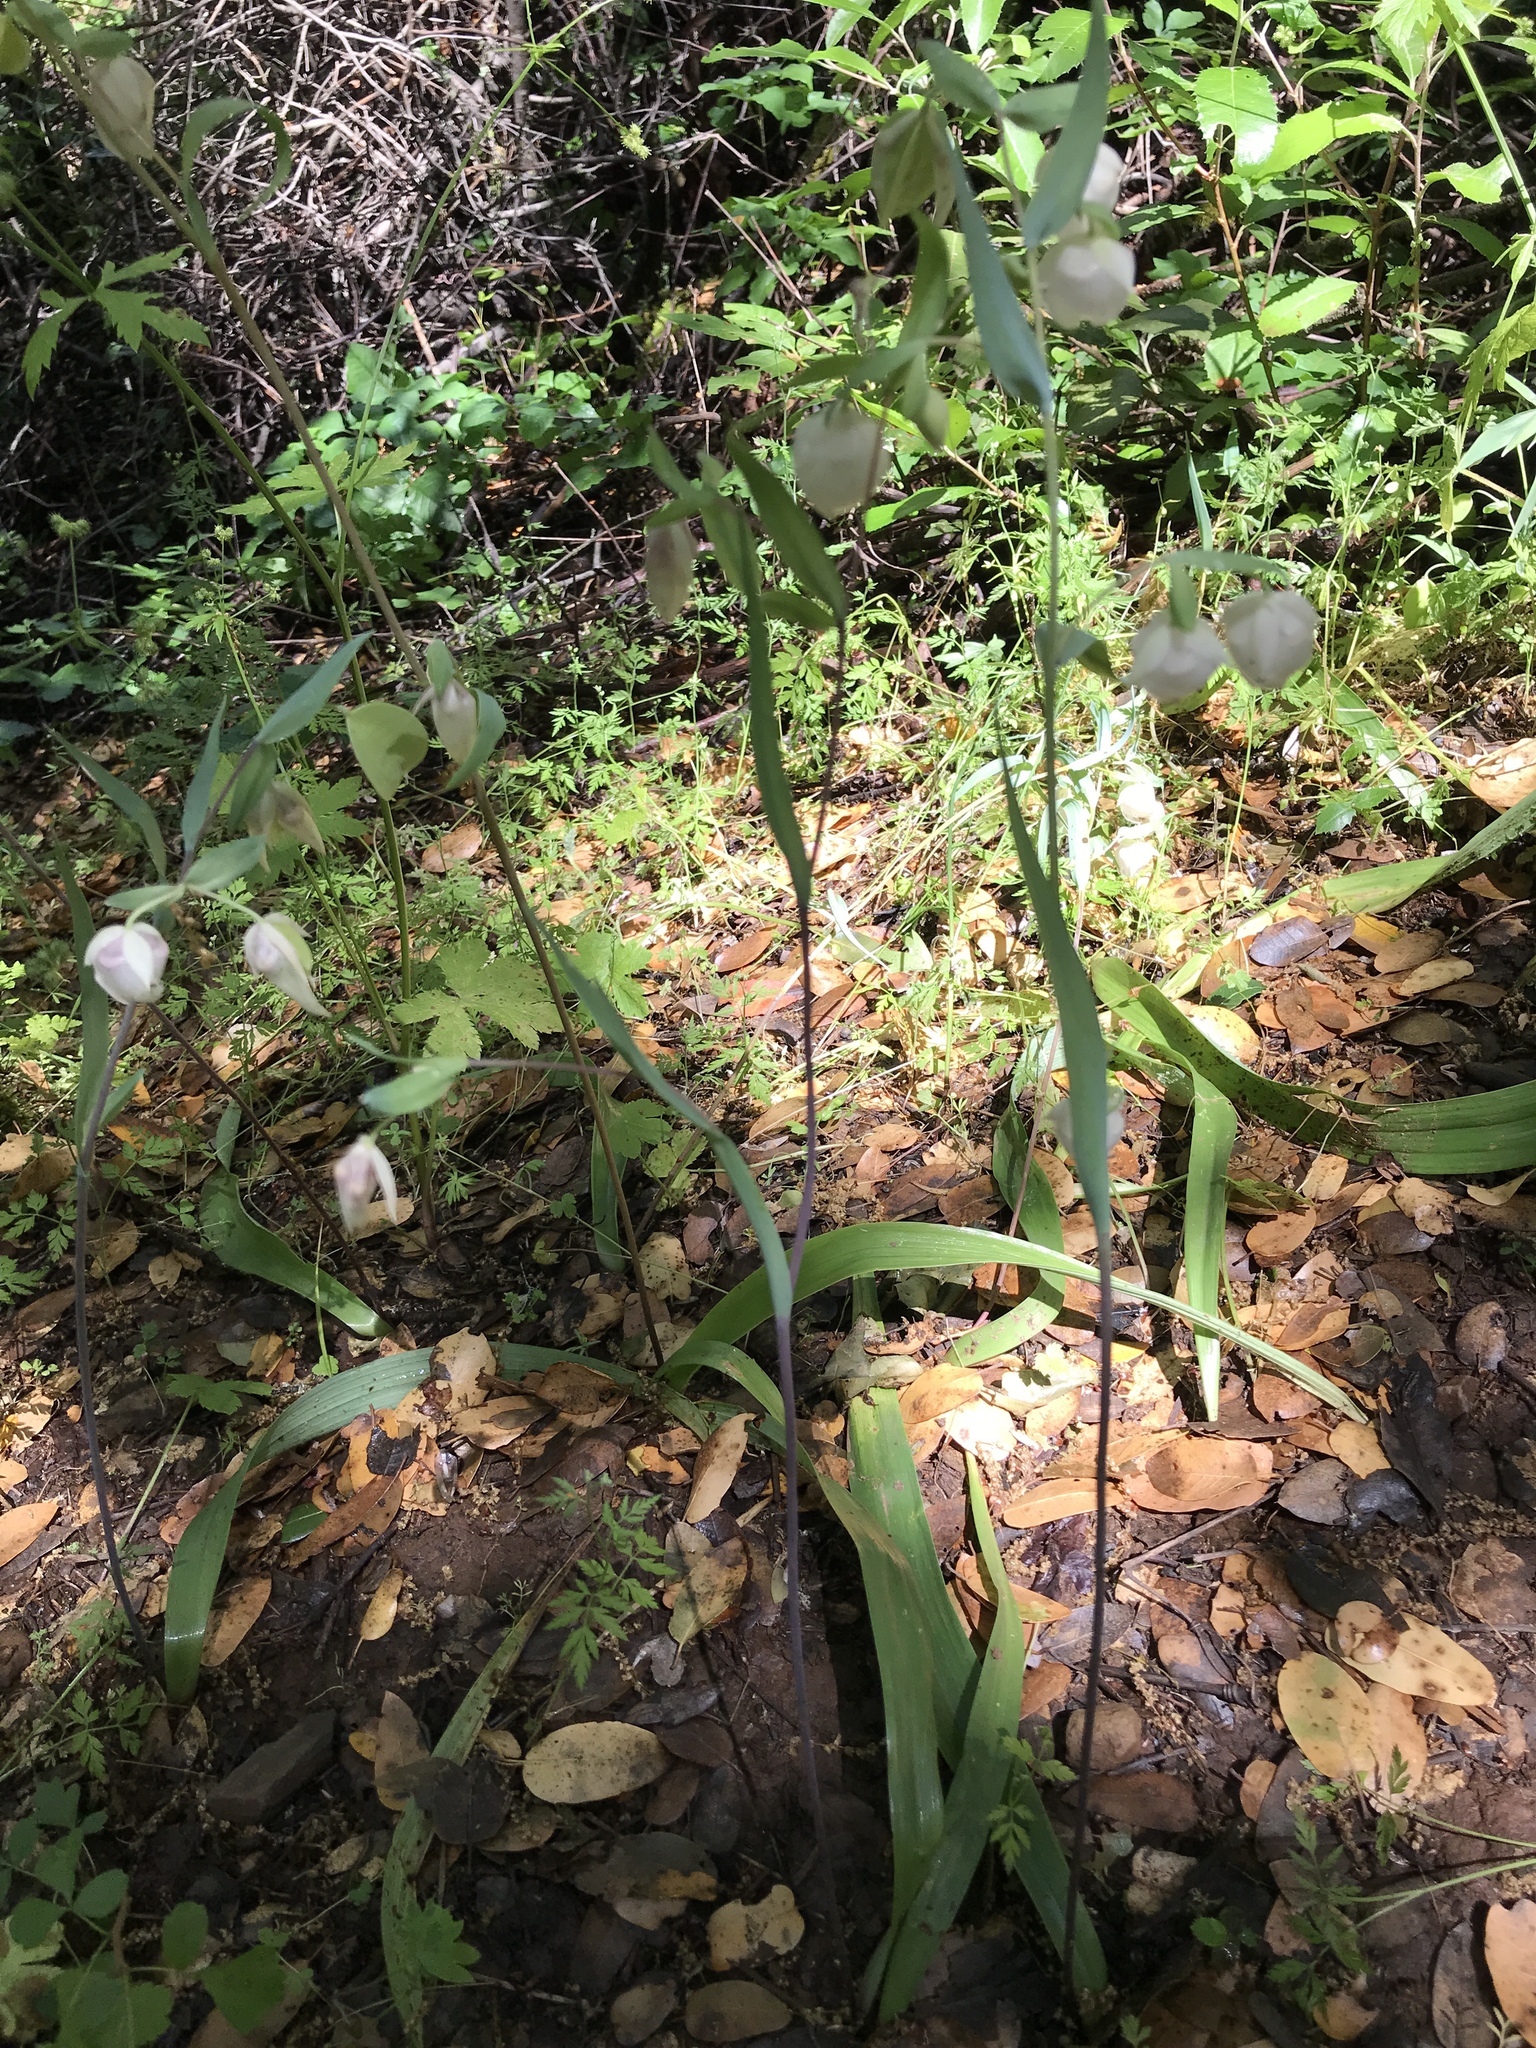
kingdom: Plantae
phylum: Tracheophyta
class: Liliopsida
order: Liliales
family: Liliaceae
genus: Calochortus
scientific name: Calochortus albus
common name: Fairy-lantern
